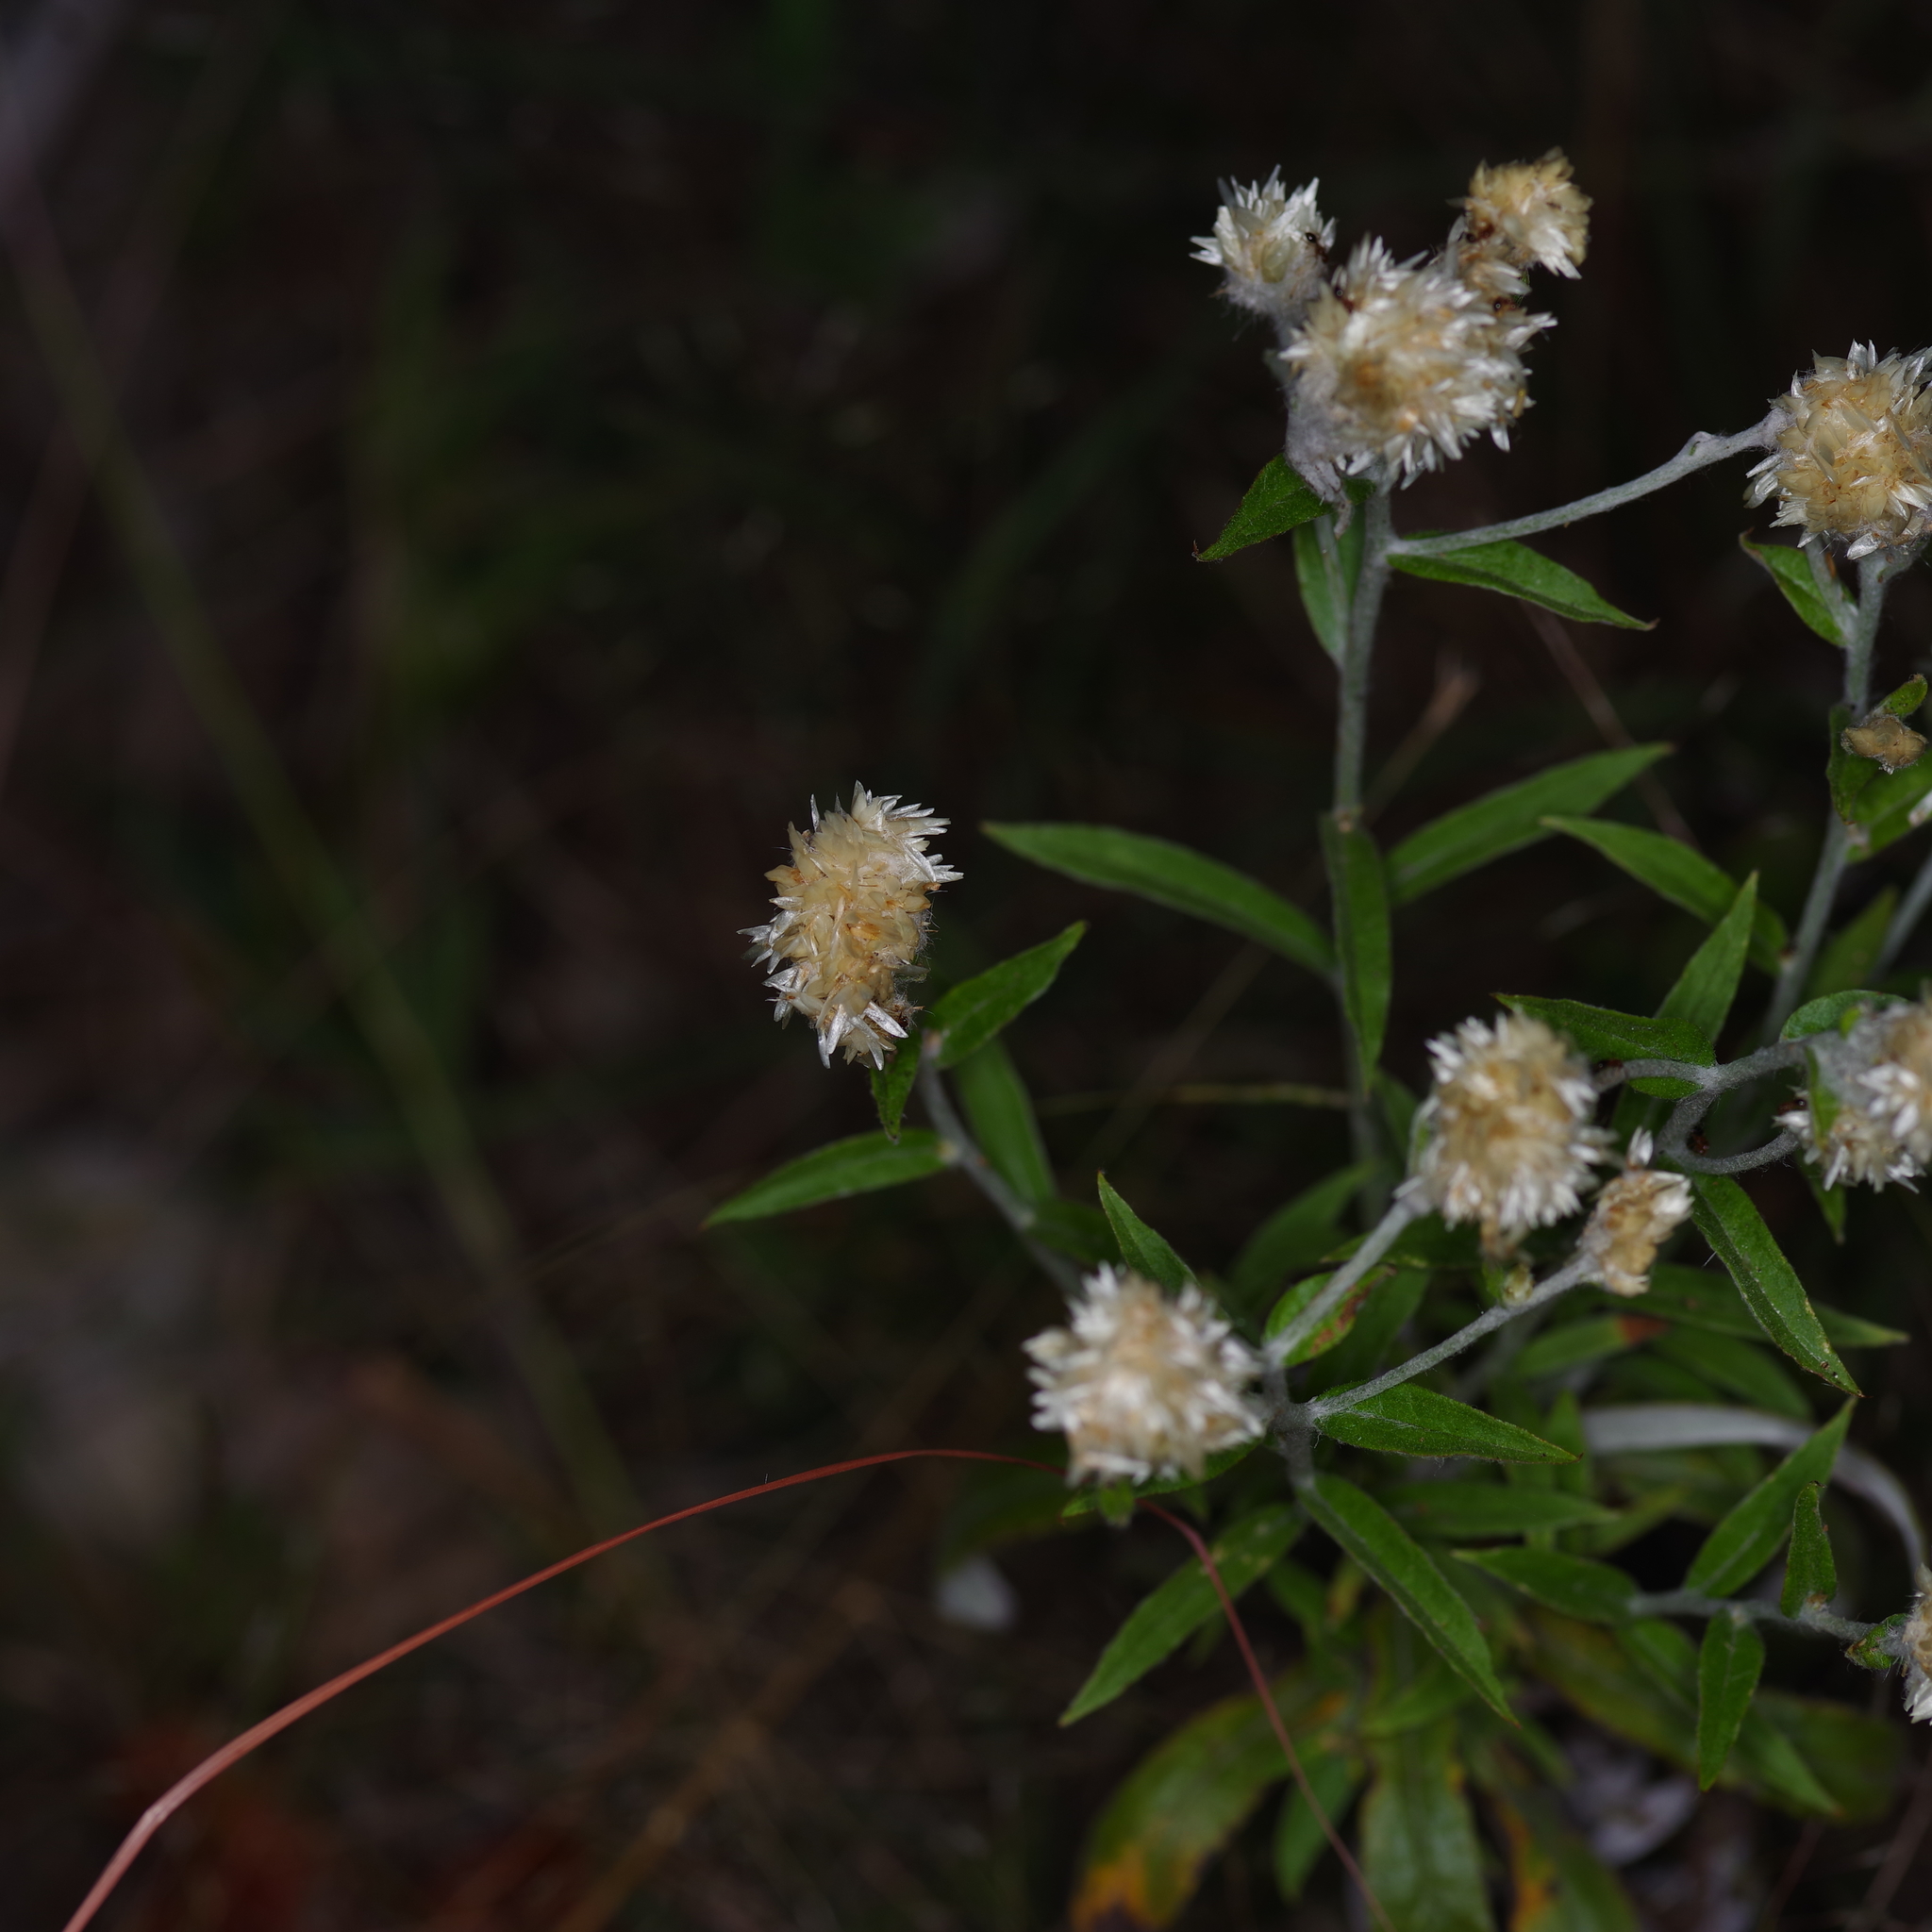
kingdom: Plantae
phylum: Tracheophyta
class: Magnoliopsida
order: Asterales
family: Asteraceae
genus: Pseudognaphalium
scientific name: Pseudognaphalium obtusifolium
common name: Eastern rabbit-tobacco
